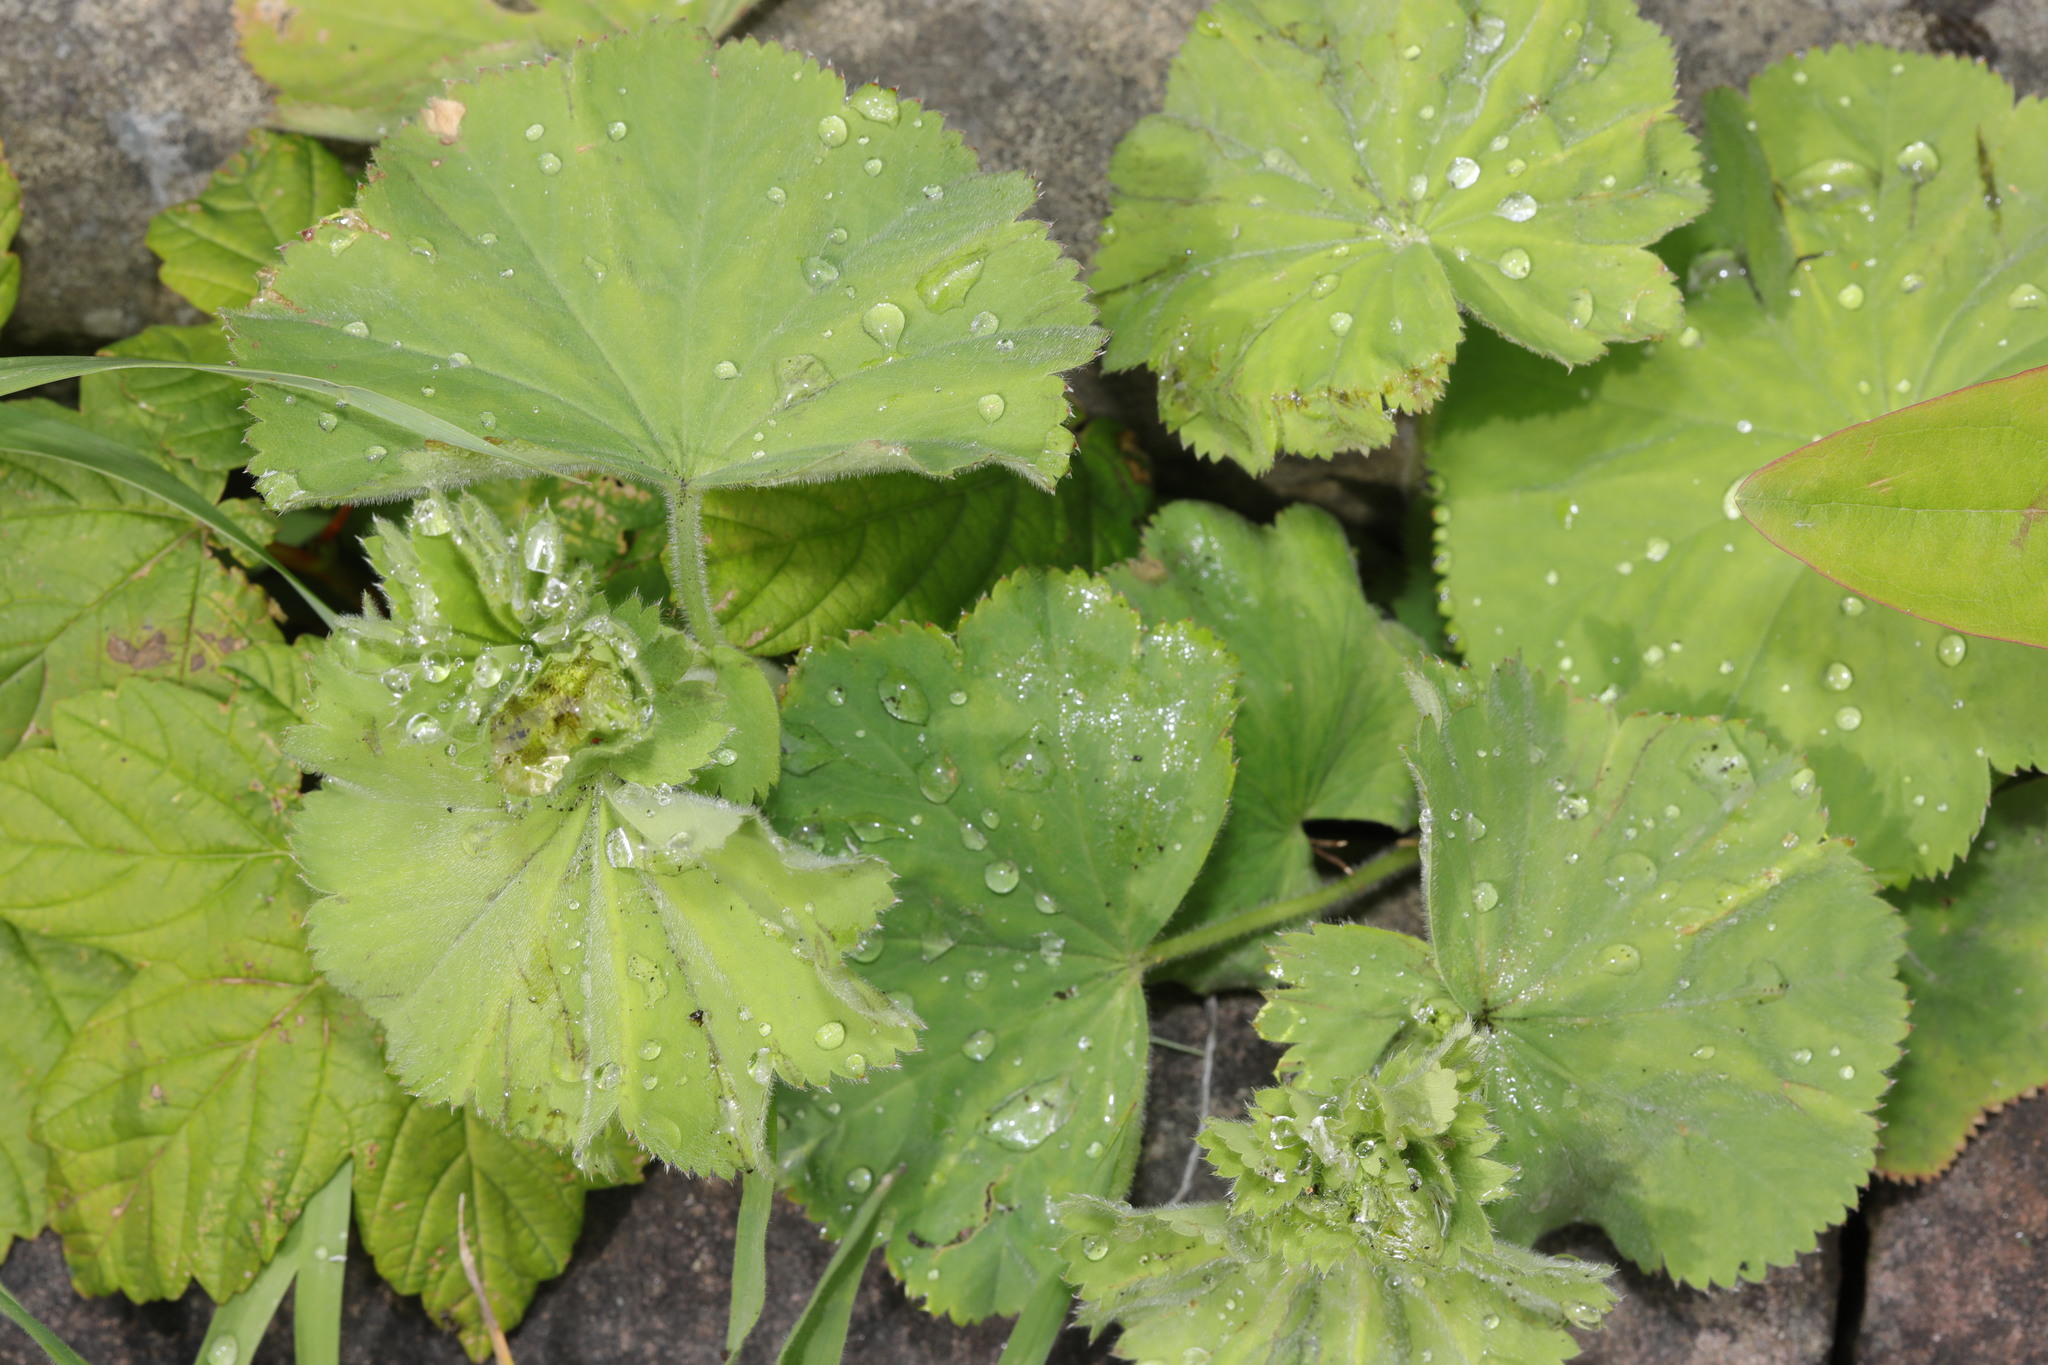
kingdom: Plantae
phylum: Tracheophyta
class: Magnoliopsida
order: Rosales
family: Rosaceae
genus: Alchemilla
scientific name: Alchemilla mollis
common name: Lady's-mantle
